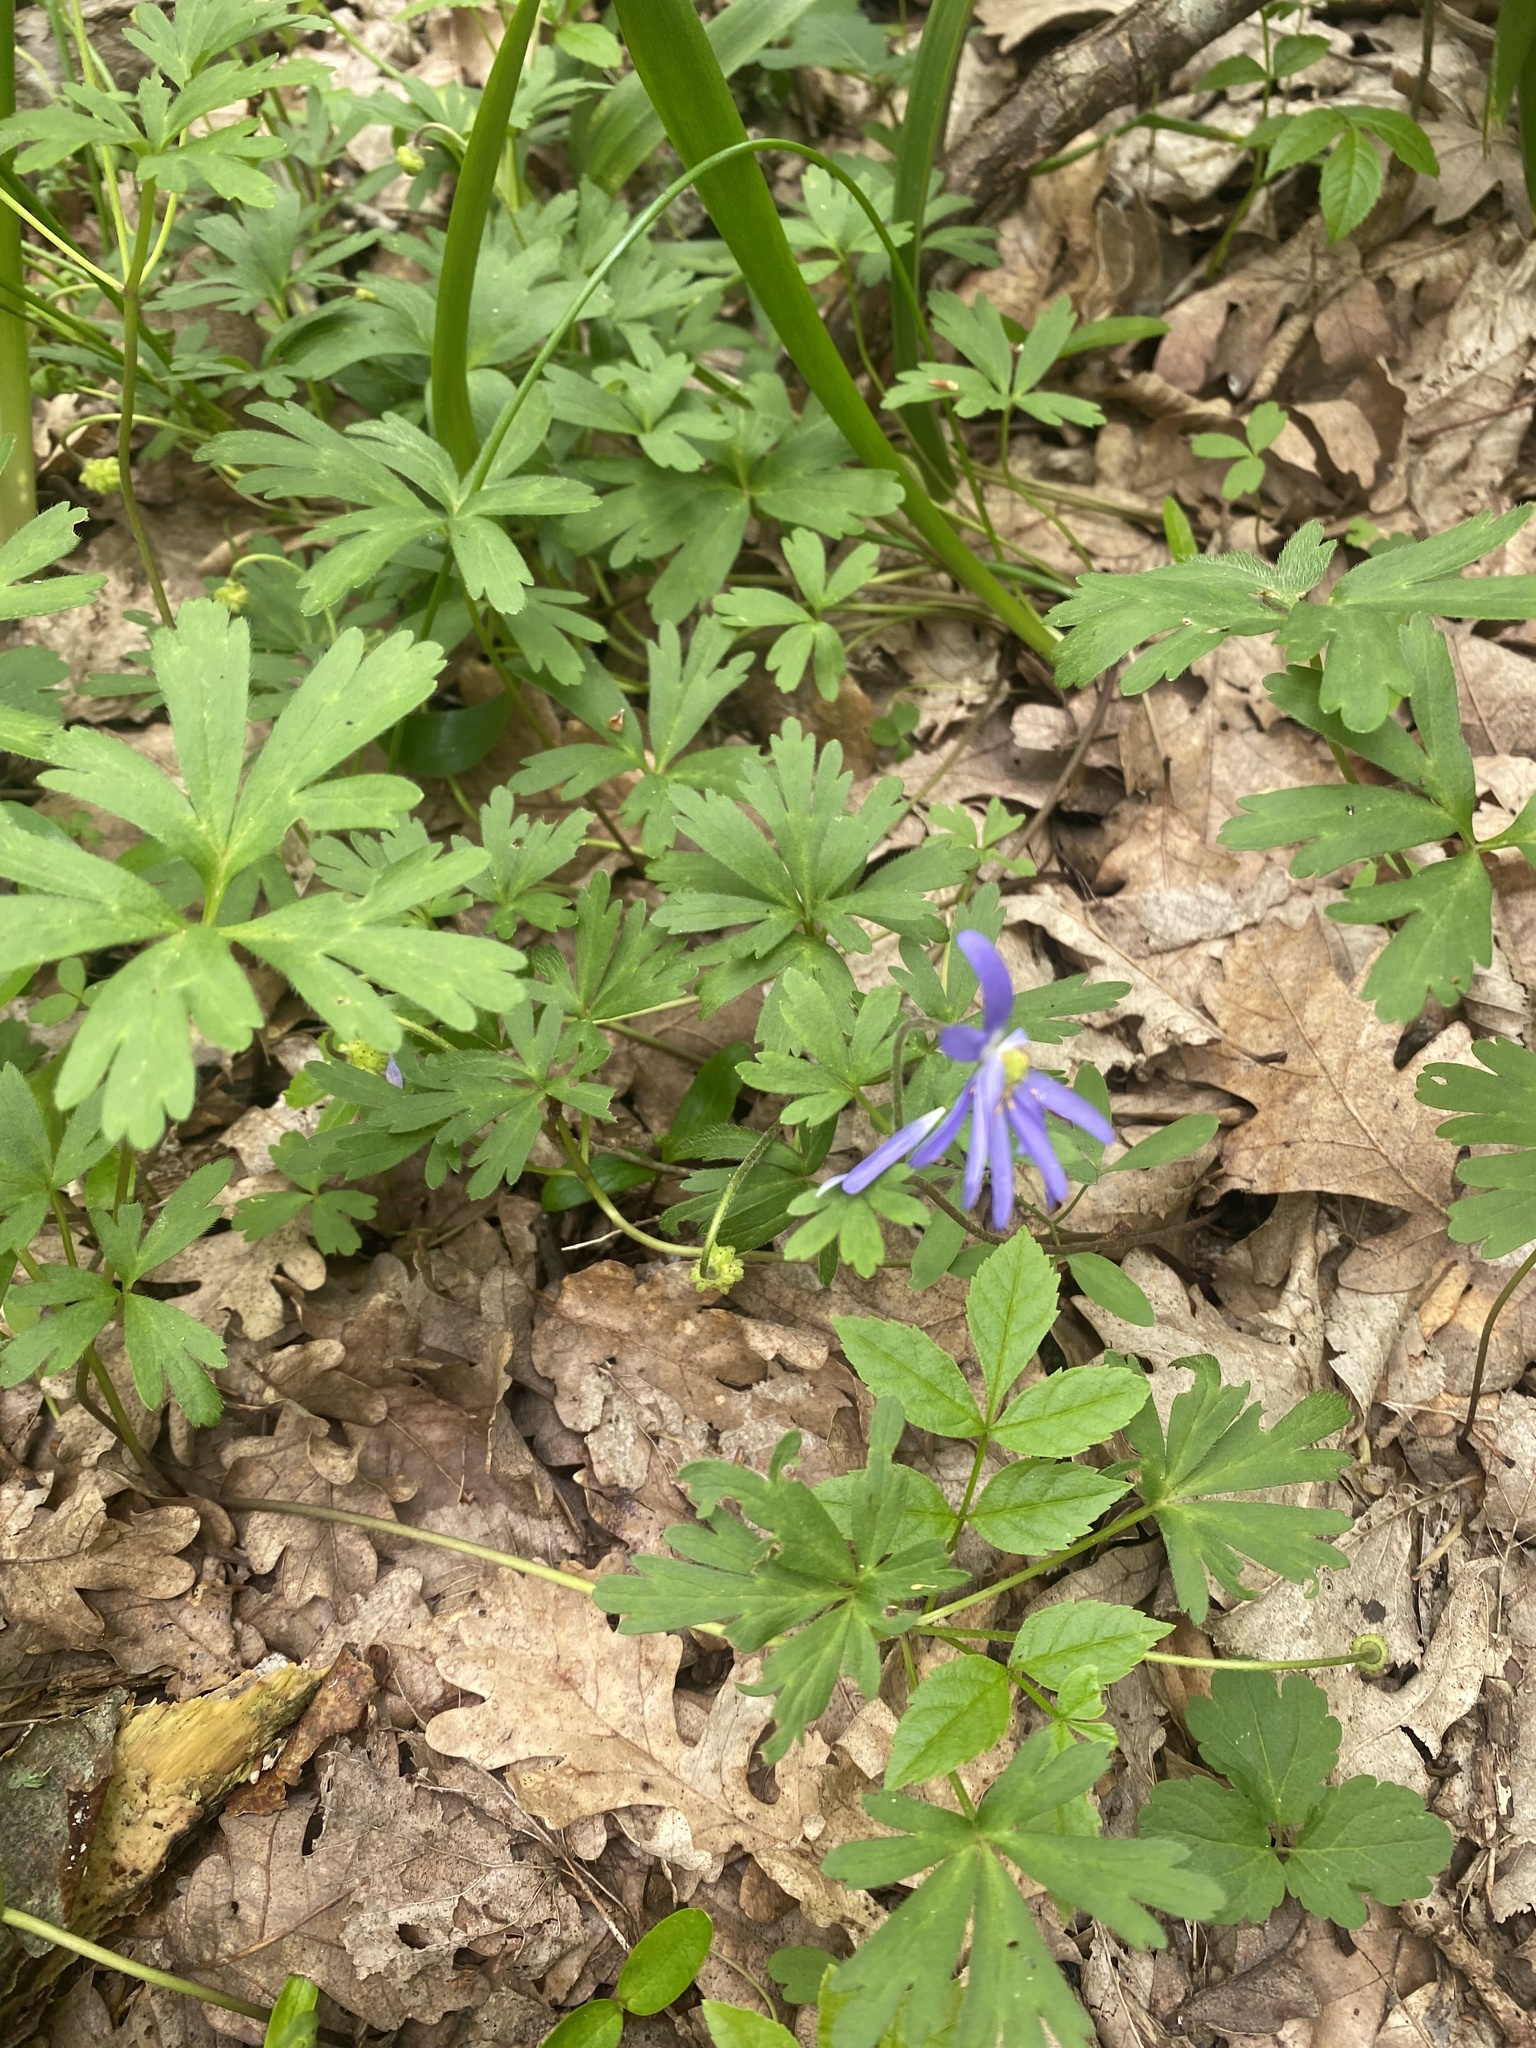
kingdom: Plantae
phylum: Tracheophyta
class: Magnoliopsida
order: Ranunculales
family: Ranunculaceae
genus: Anemone
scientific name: Anemone blanda
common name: Balkan anemone
